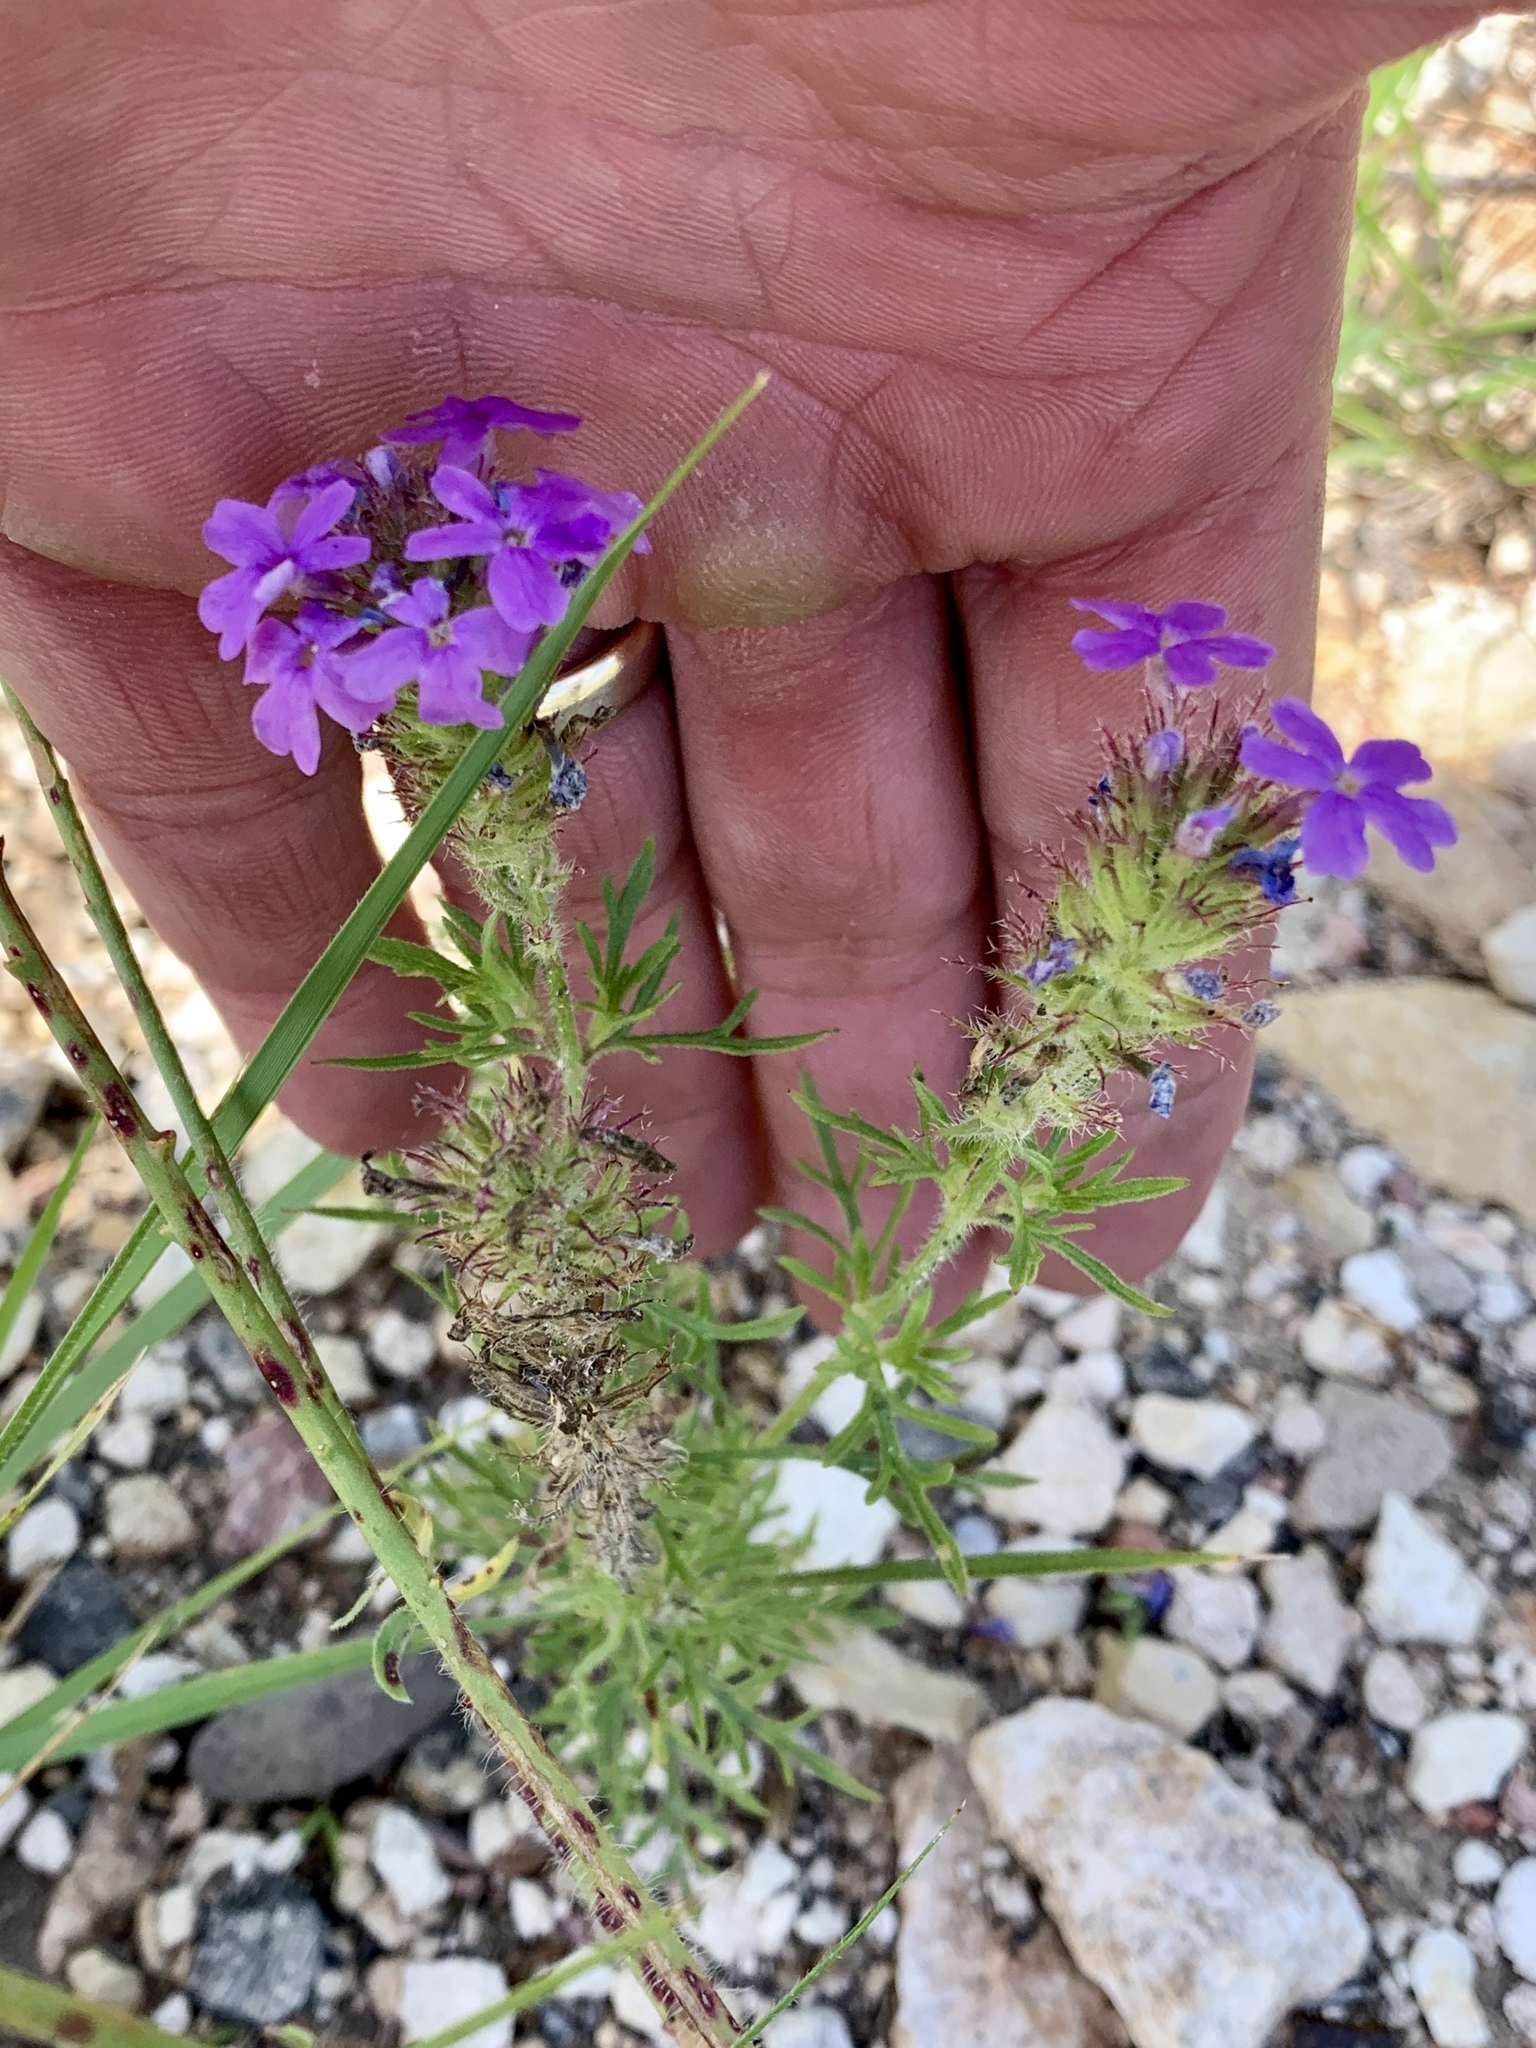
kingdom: Plantae
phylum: Tracheophyta
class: Magnoliopsida
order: Lamiales
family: Verbenaceae
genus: Verbena
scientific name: Verbena bipinnatifida
